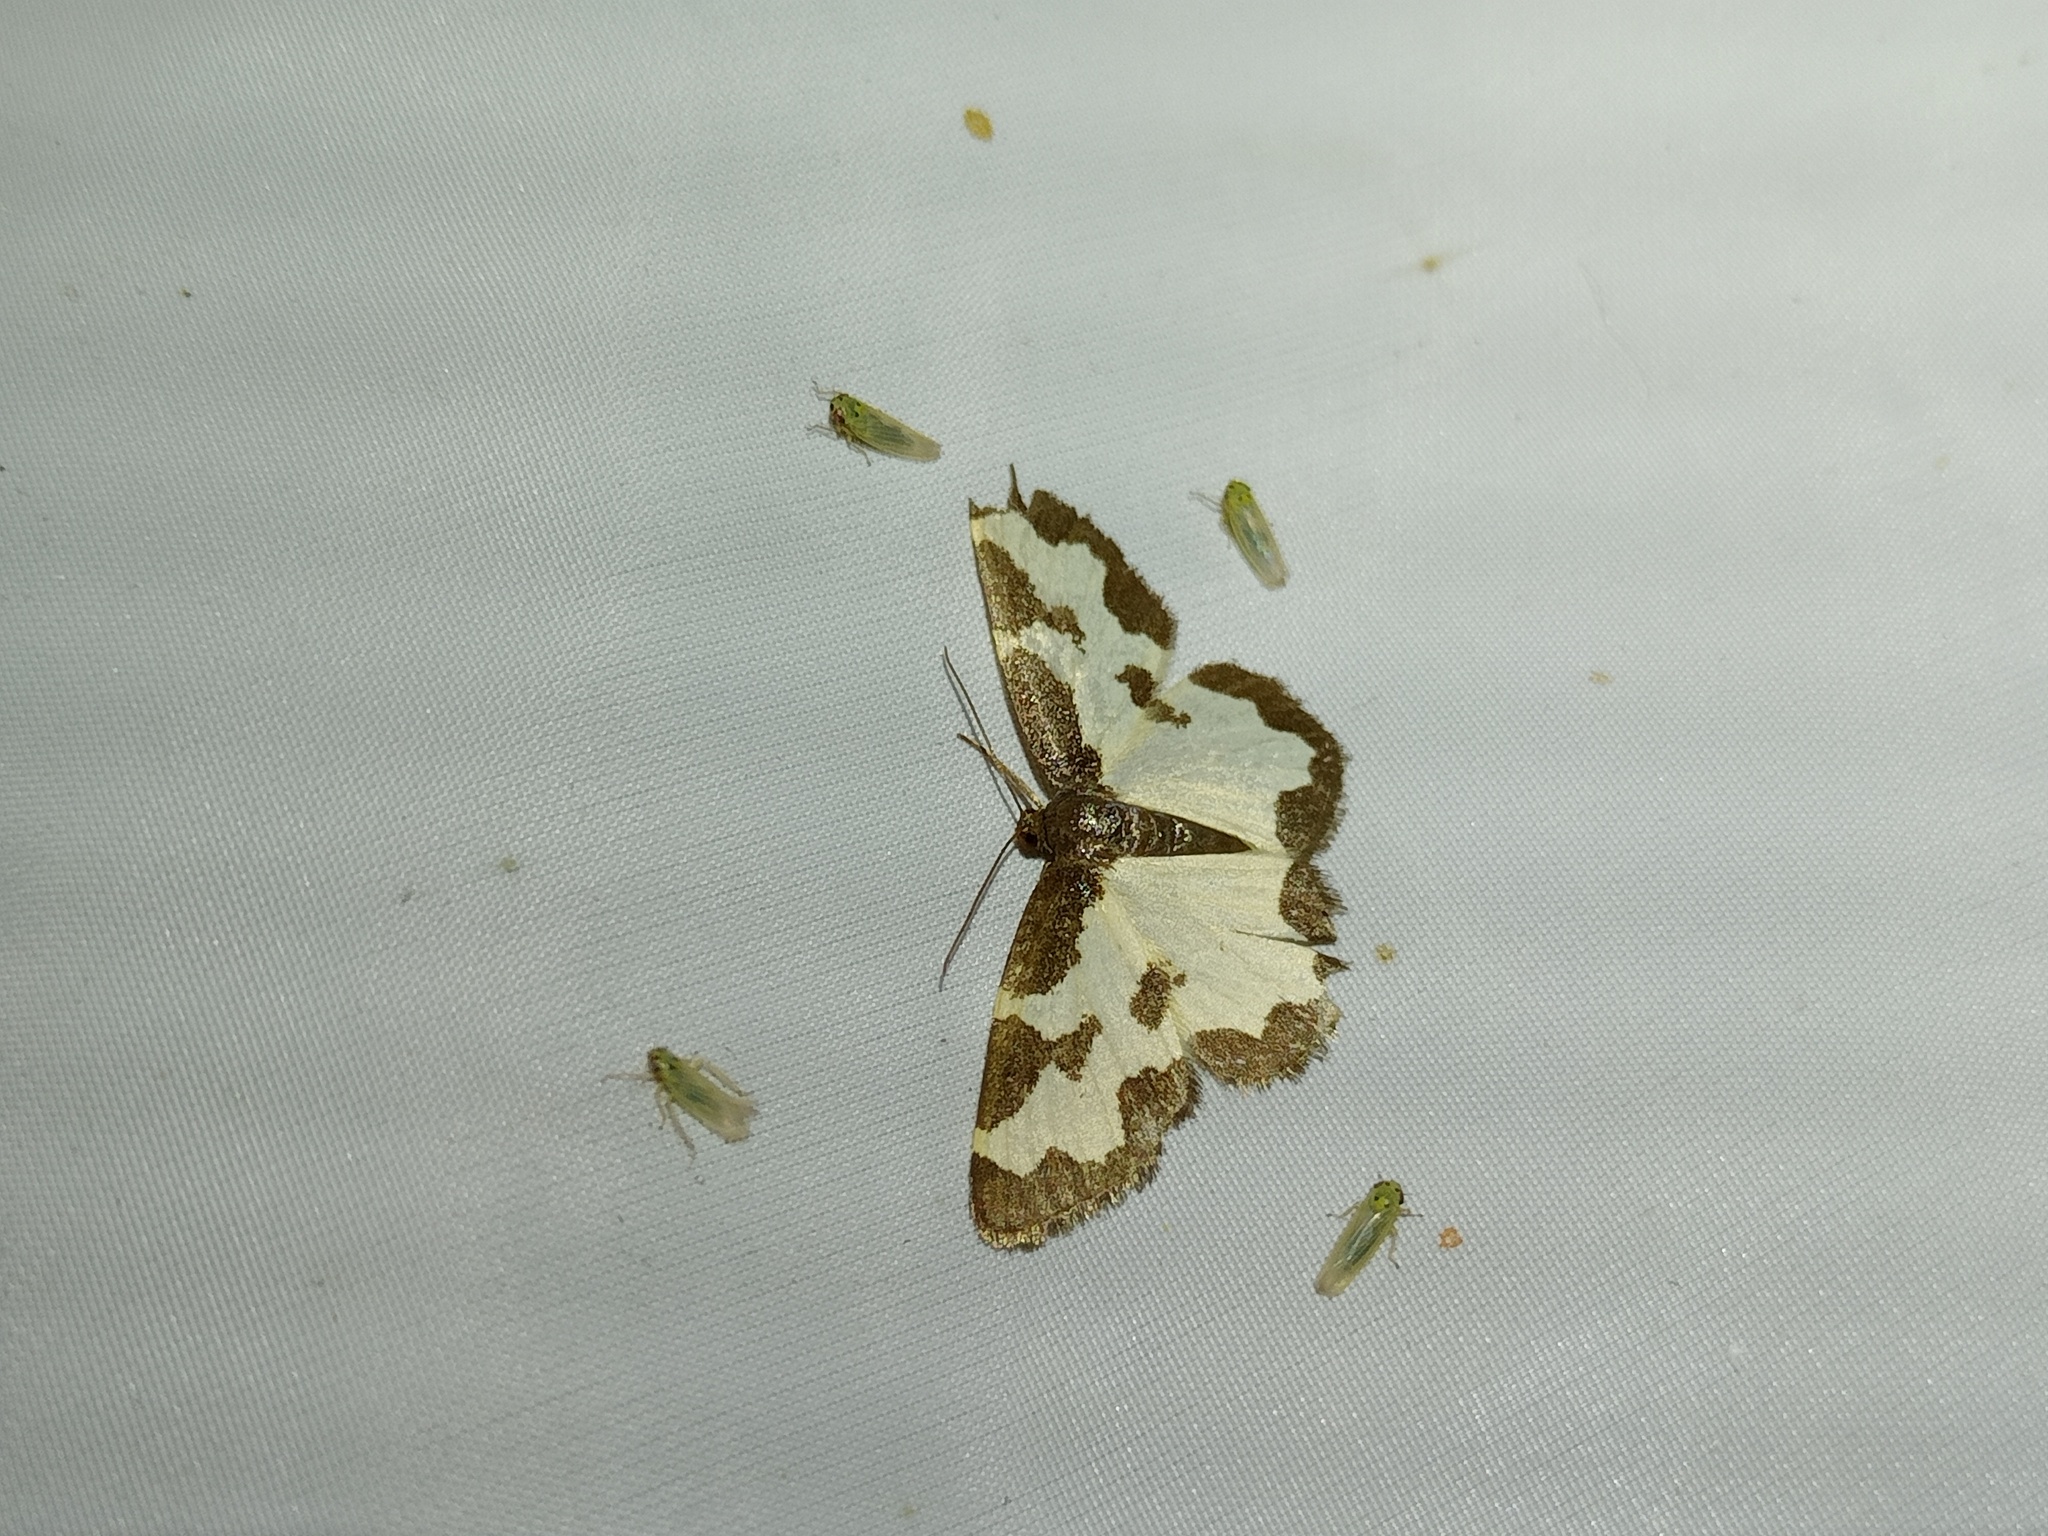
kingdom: Animalia
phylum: Arthropoda
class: Insecta
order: Lepidoptera
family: Geometridae
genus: Lomaspilis
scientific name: Lomaspilis marginata
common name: Clouded border
